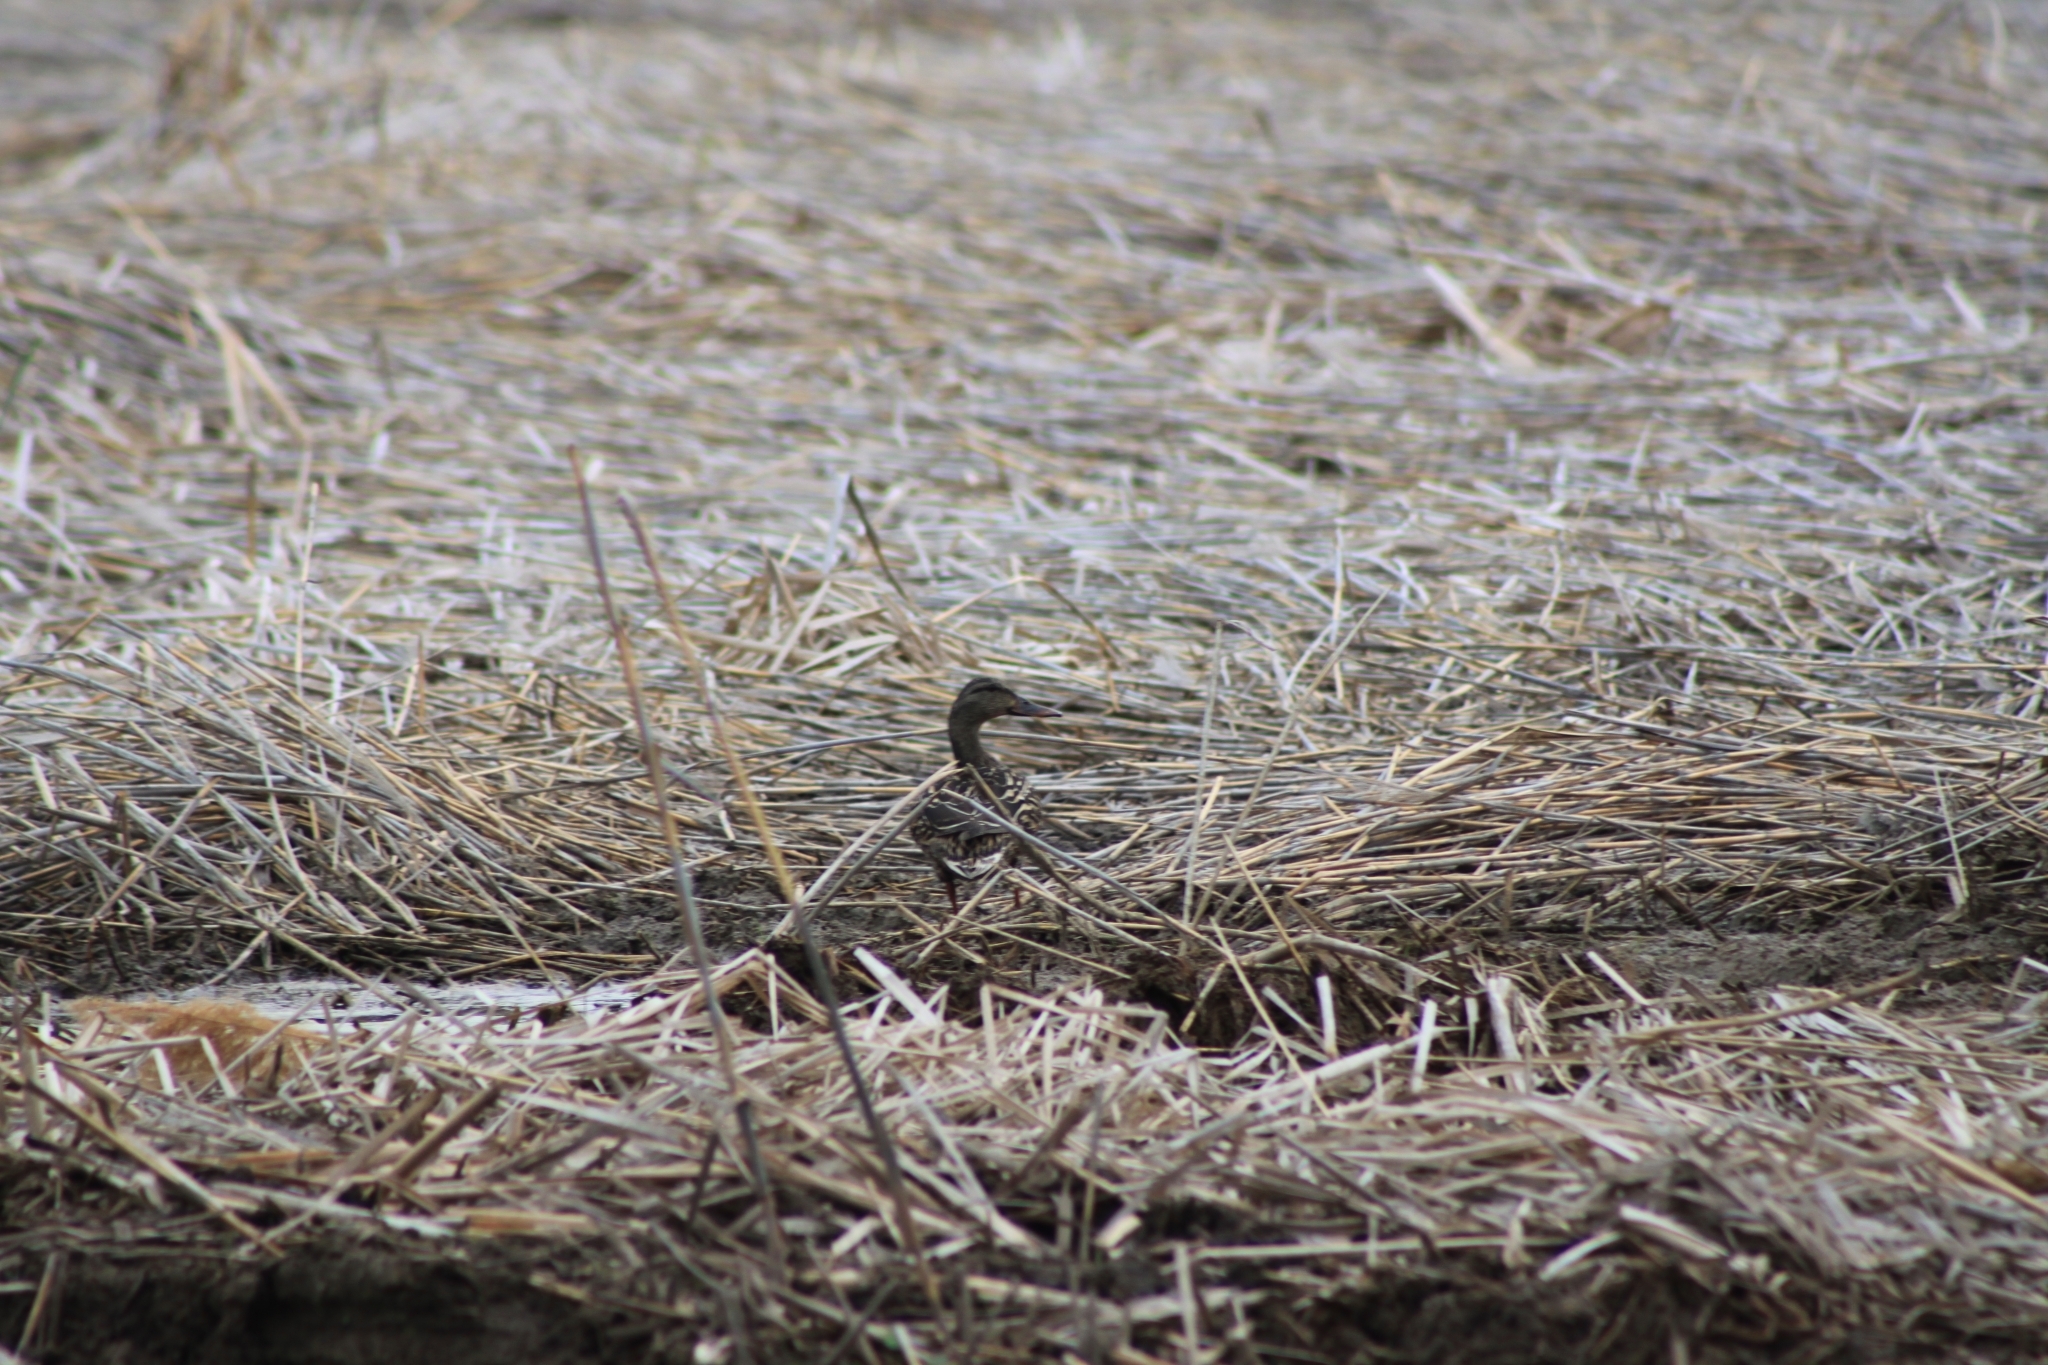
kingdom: Animalia
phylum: Chordata
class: Aves
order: Anseriformes
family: Anatidae
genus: Anas
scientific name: Anas platyrhynchos
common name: Mallard
